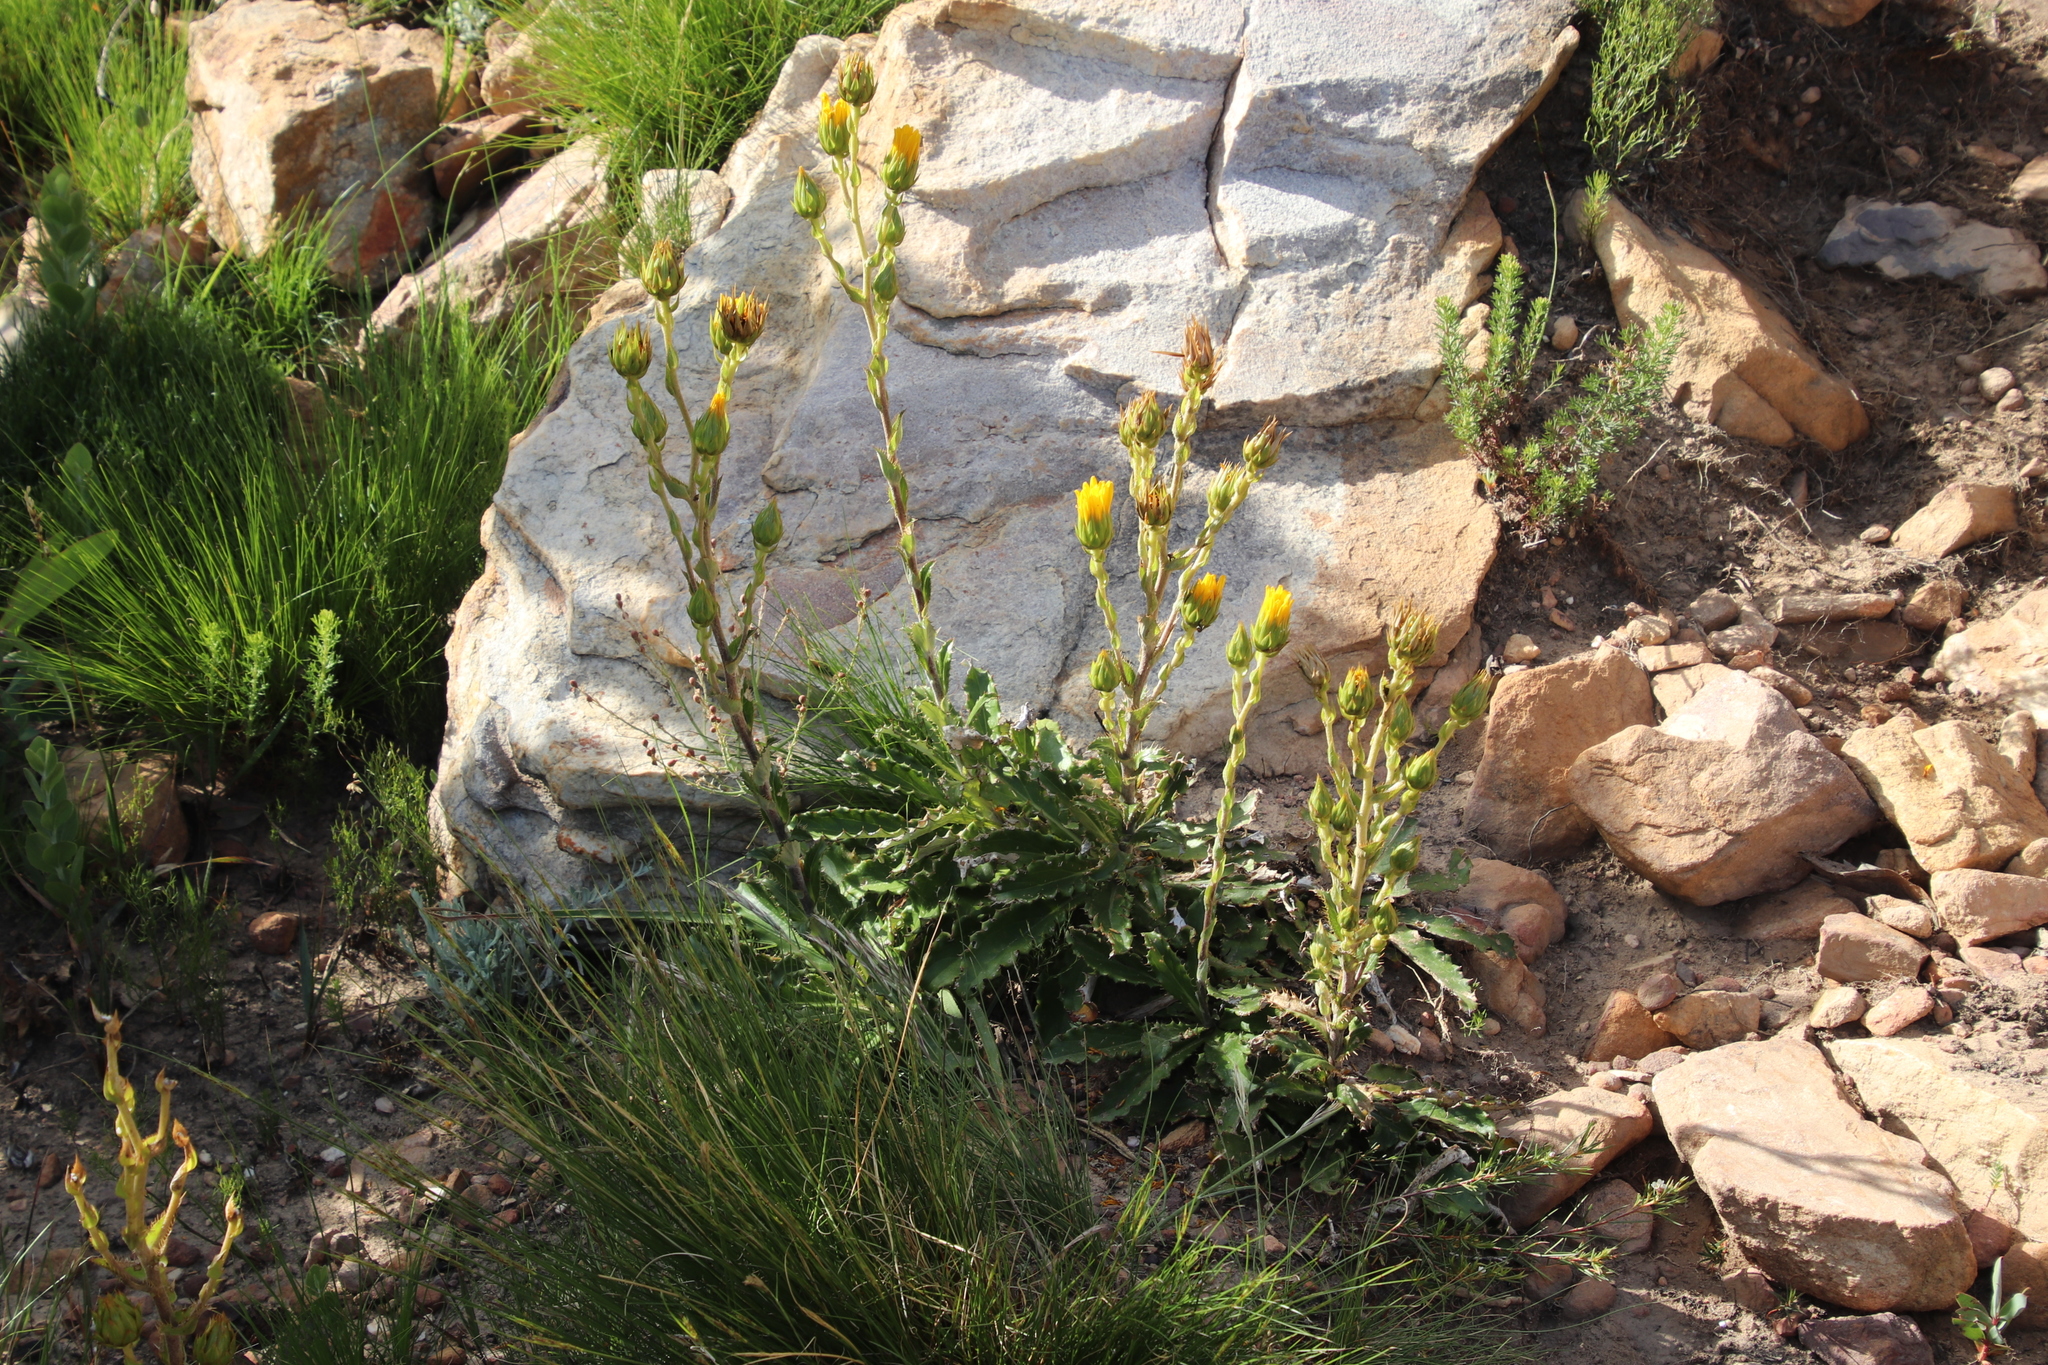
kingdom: Plantae
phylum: Tracheophyta
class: Magnoliopsida
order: Asterales
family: Asteraceae
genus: Berkheya
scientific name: Berkheya armata
